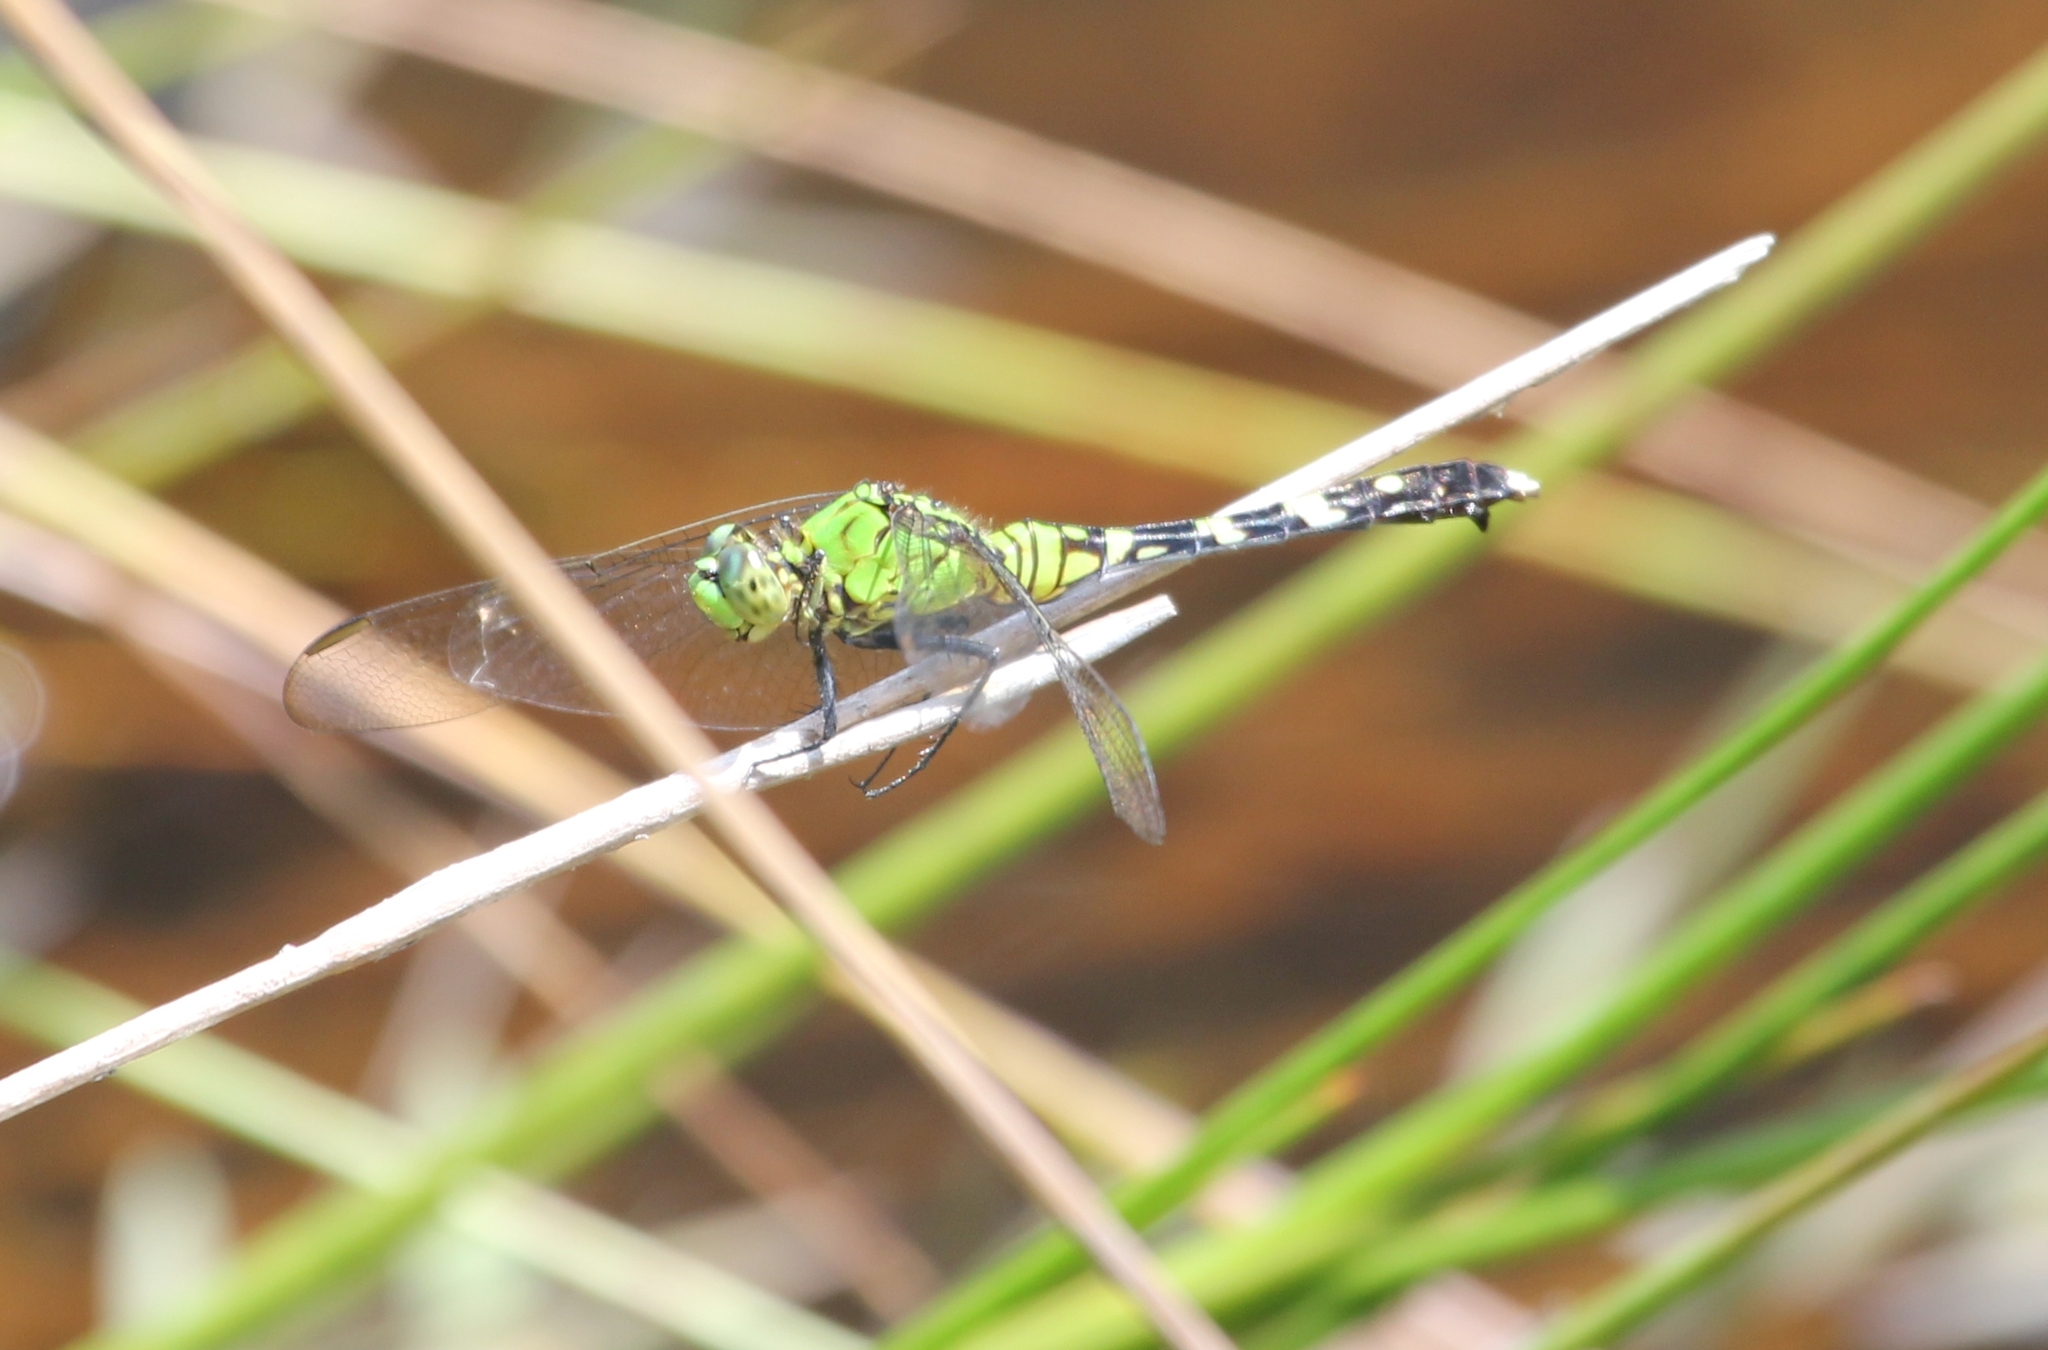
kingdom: Animalia
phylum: Arthropoda
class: Insecta
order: Odonata
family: Libellulidae
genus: Erythemis
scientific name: Erythemis simplicicollis
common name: Eastern pondhawk
